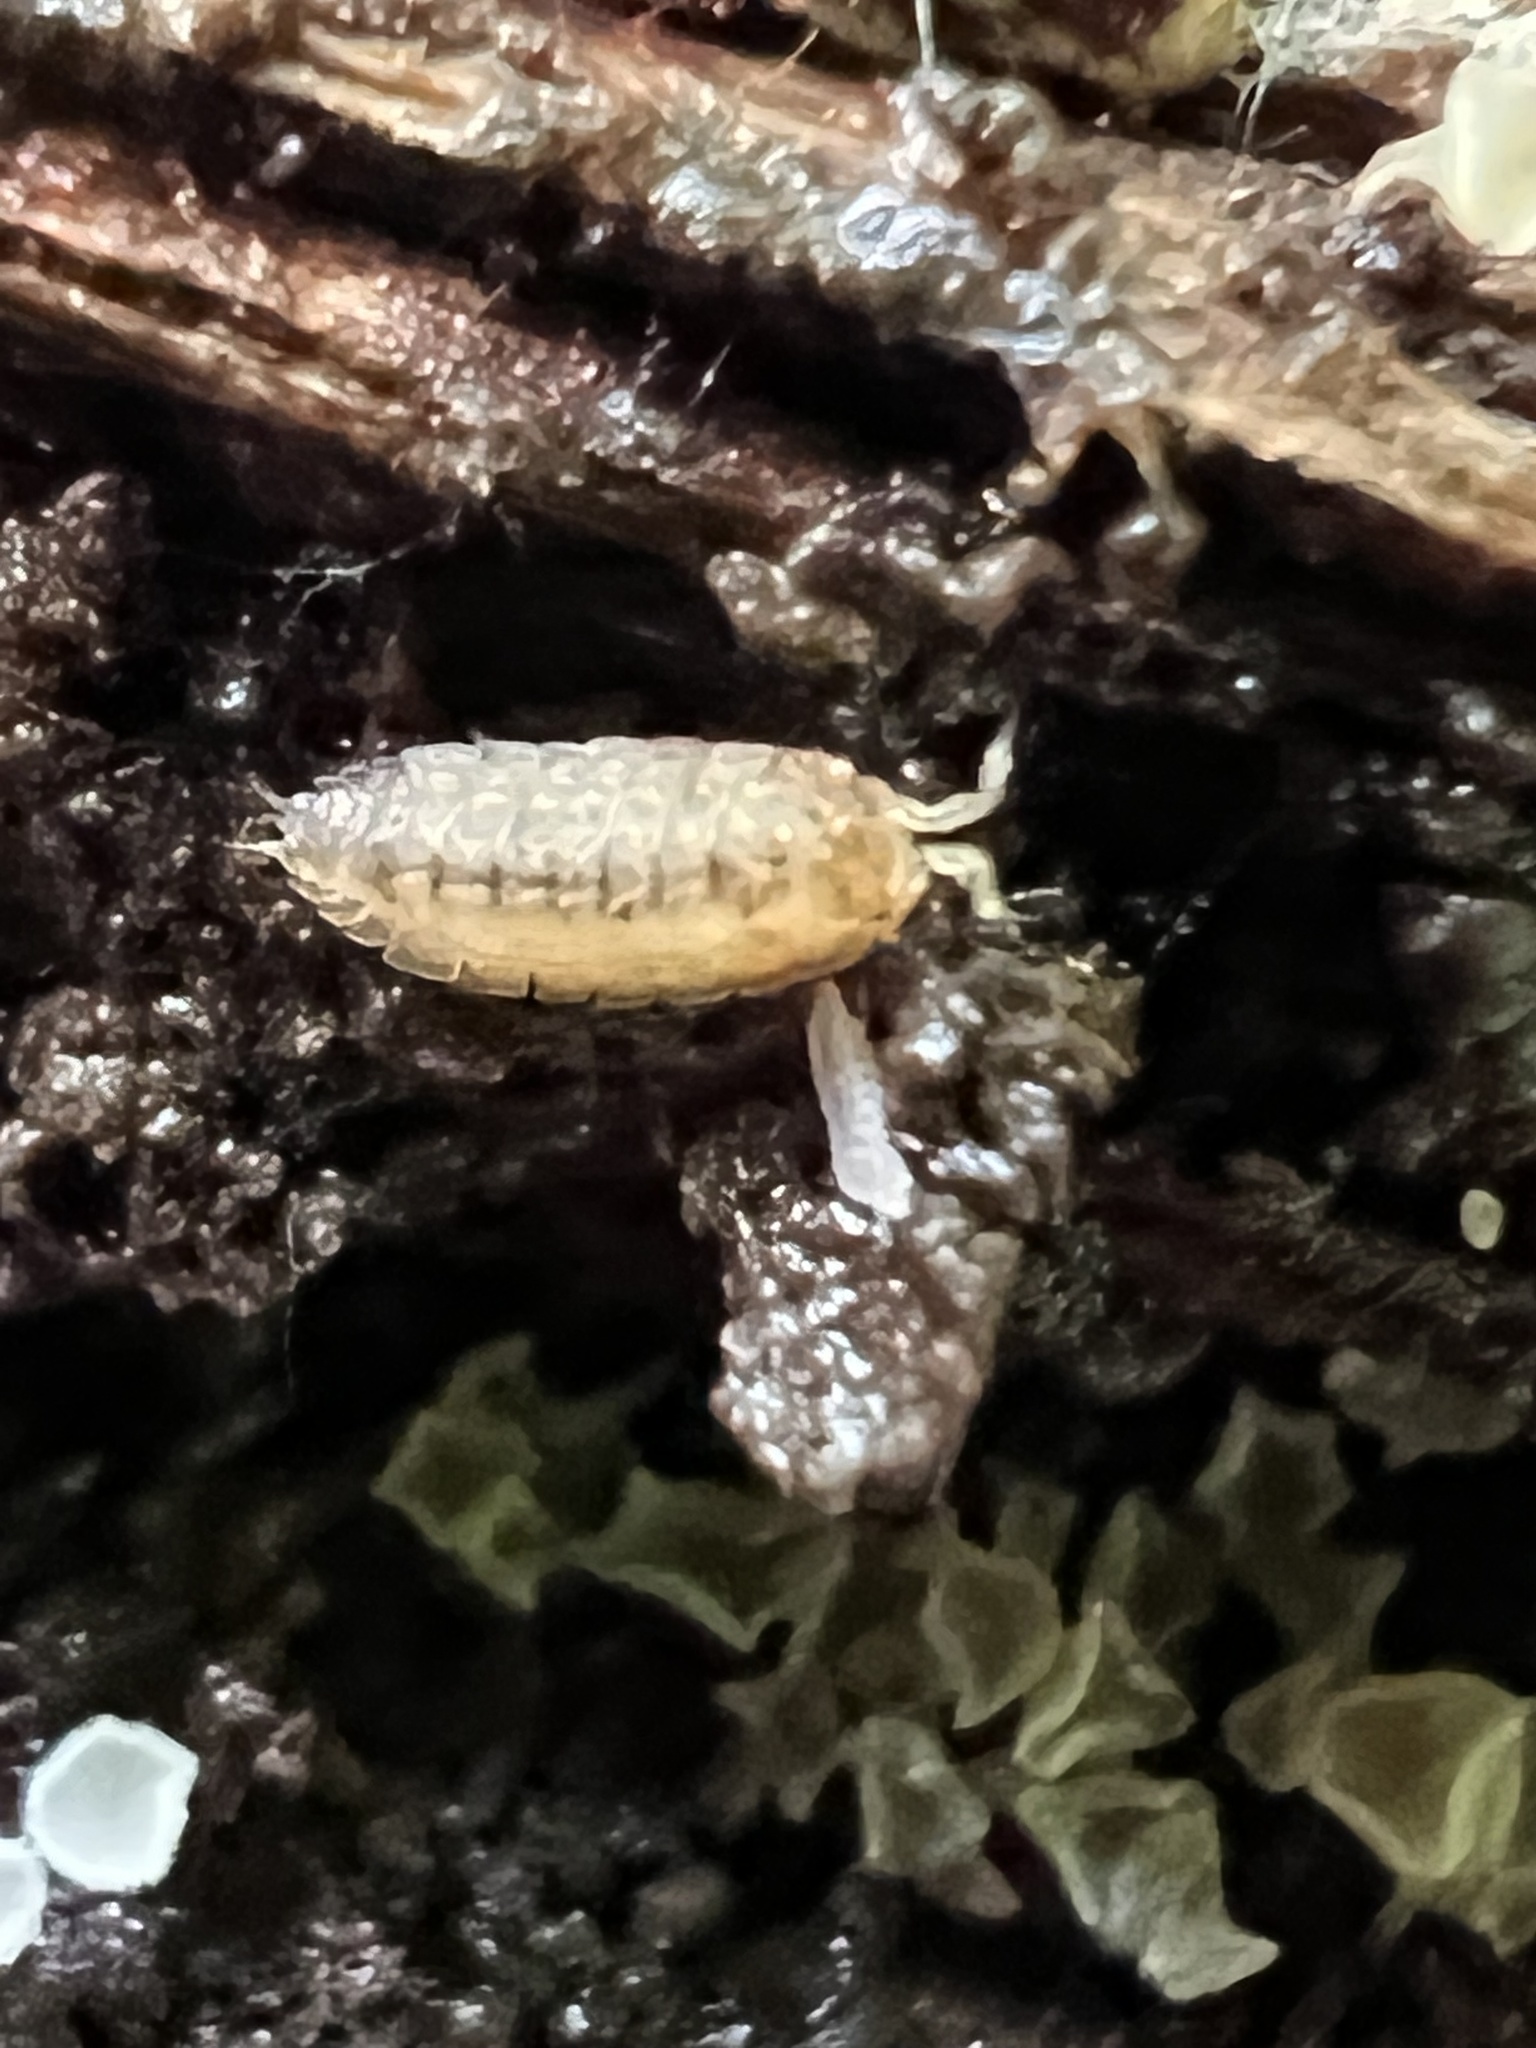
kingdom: Animalia
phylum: Arthropoda
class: Malacostraca
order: Isopoda
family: Trichoniscidae
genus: Haplophthalmus
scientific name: Haplophthalmus danicus
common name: Pillbug
